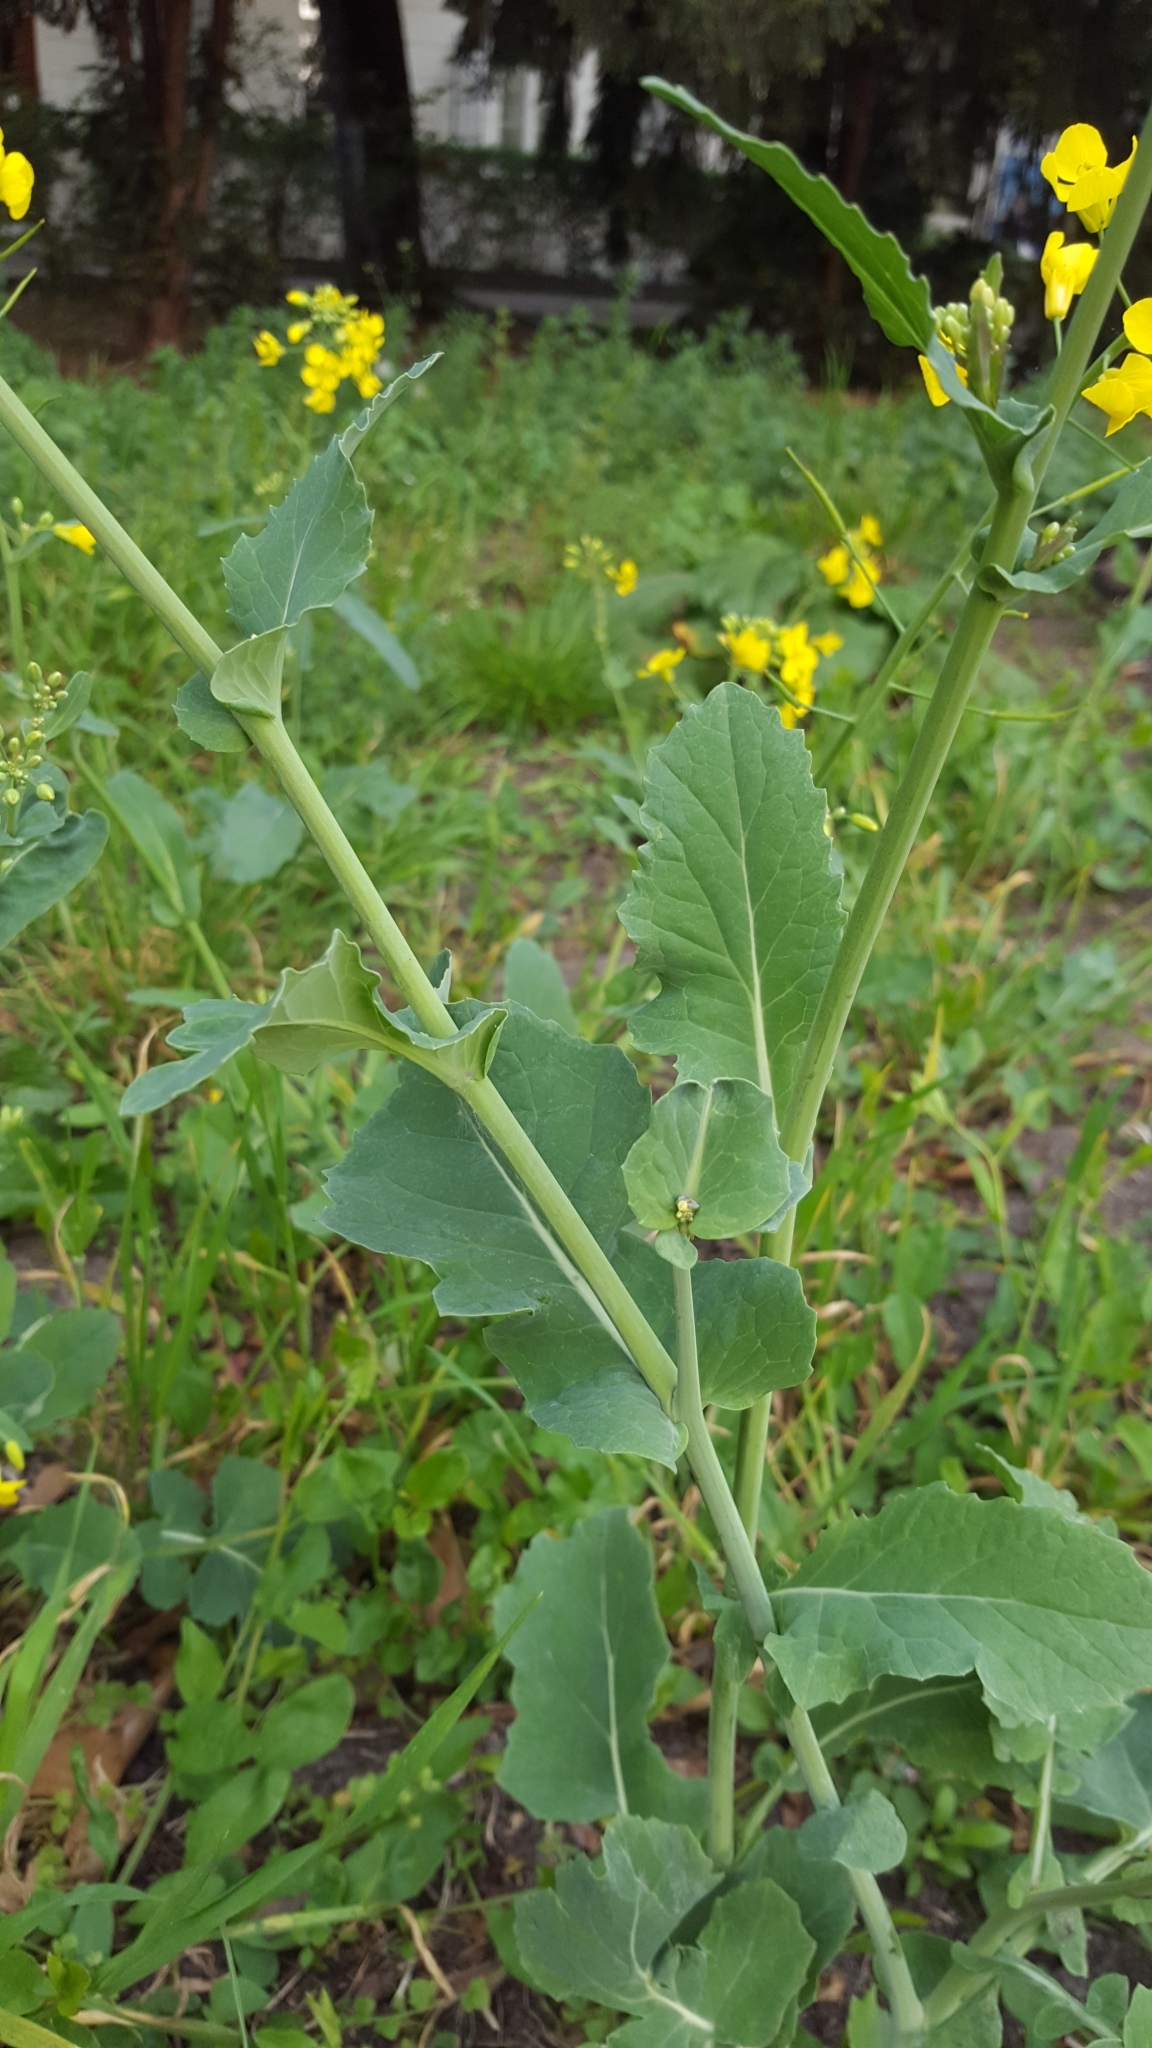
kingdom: Plantae
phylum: Tracheophyta
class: Magnoliopsida
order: Brassicales
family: Brassicaceae
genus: Brassica
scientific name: Brassica napus
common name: Rape
